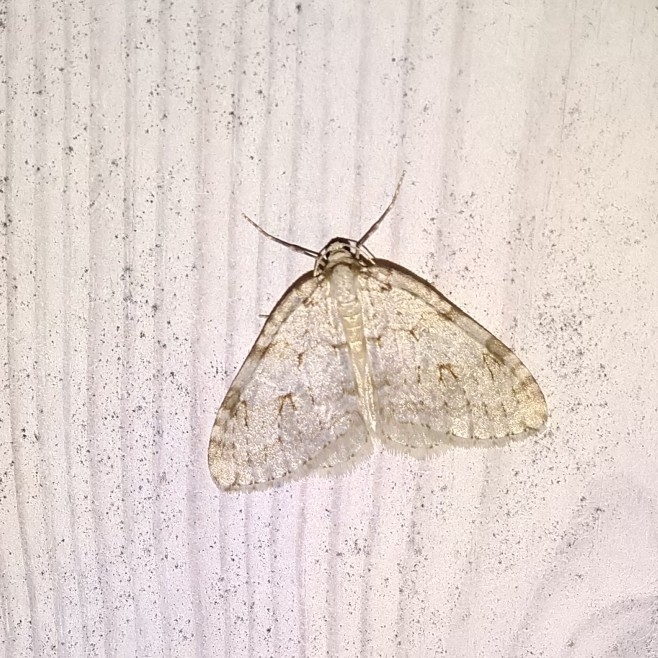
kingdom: Animalia
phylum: Arthropoda
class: Insecta
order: Lepidoptera
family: Geometridae
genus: Epirrita
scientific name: Epirrita autumnata
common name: Autumnal moth
